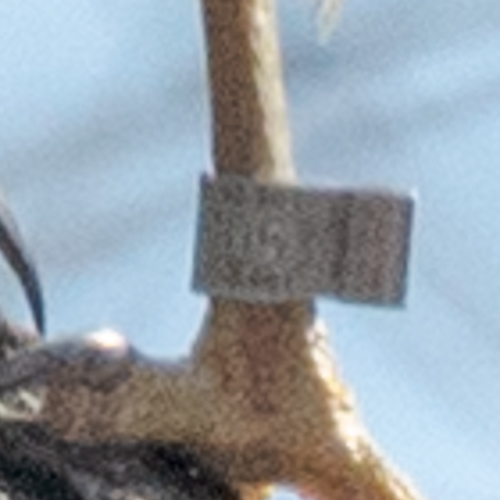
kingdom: Animalia
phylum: Chordata
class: Aves
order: Accipitriformes
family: Accipitridae
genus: Accipiter
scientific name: Accipiter cooperii
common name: Cooper's hawk
